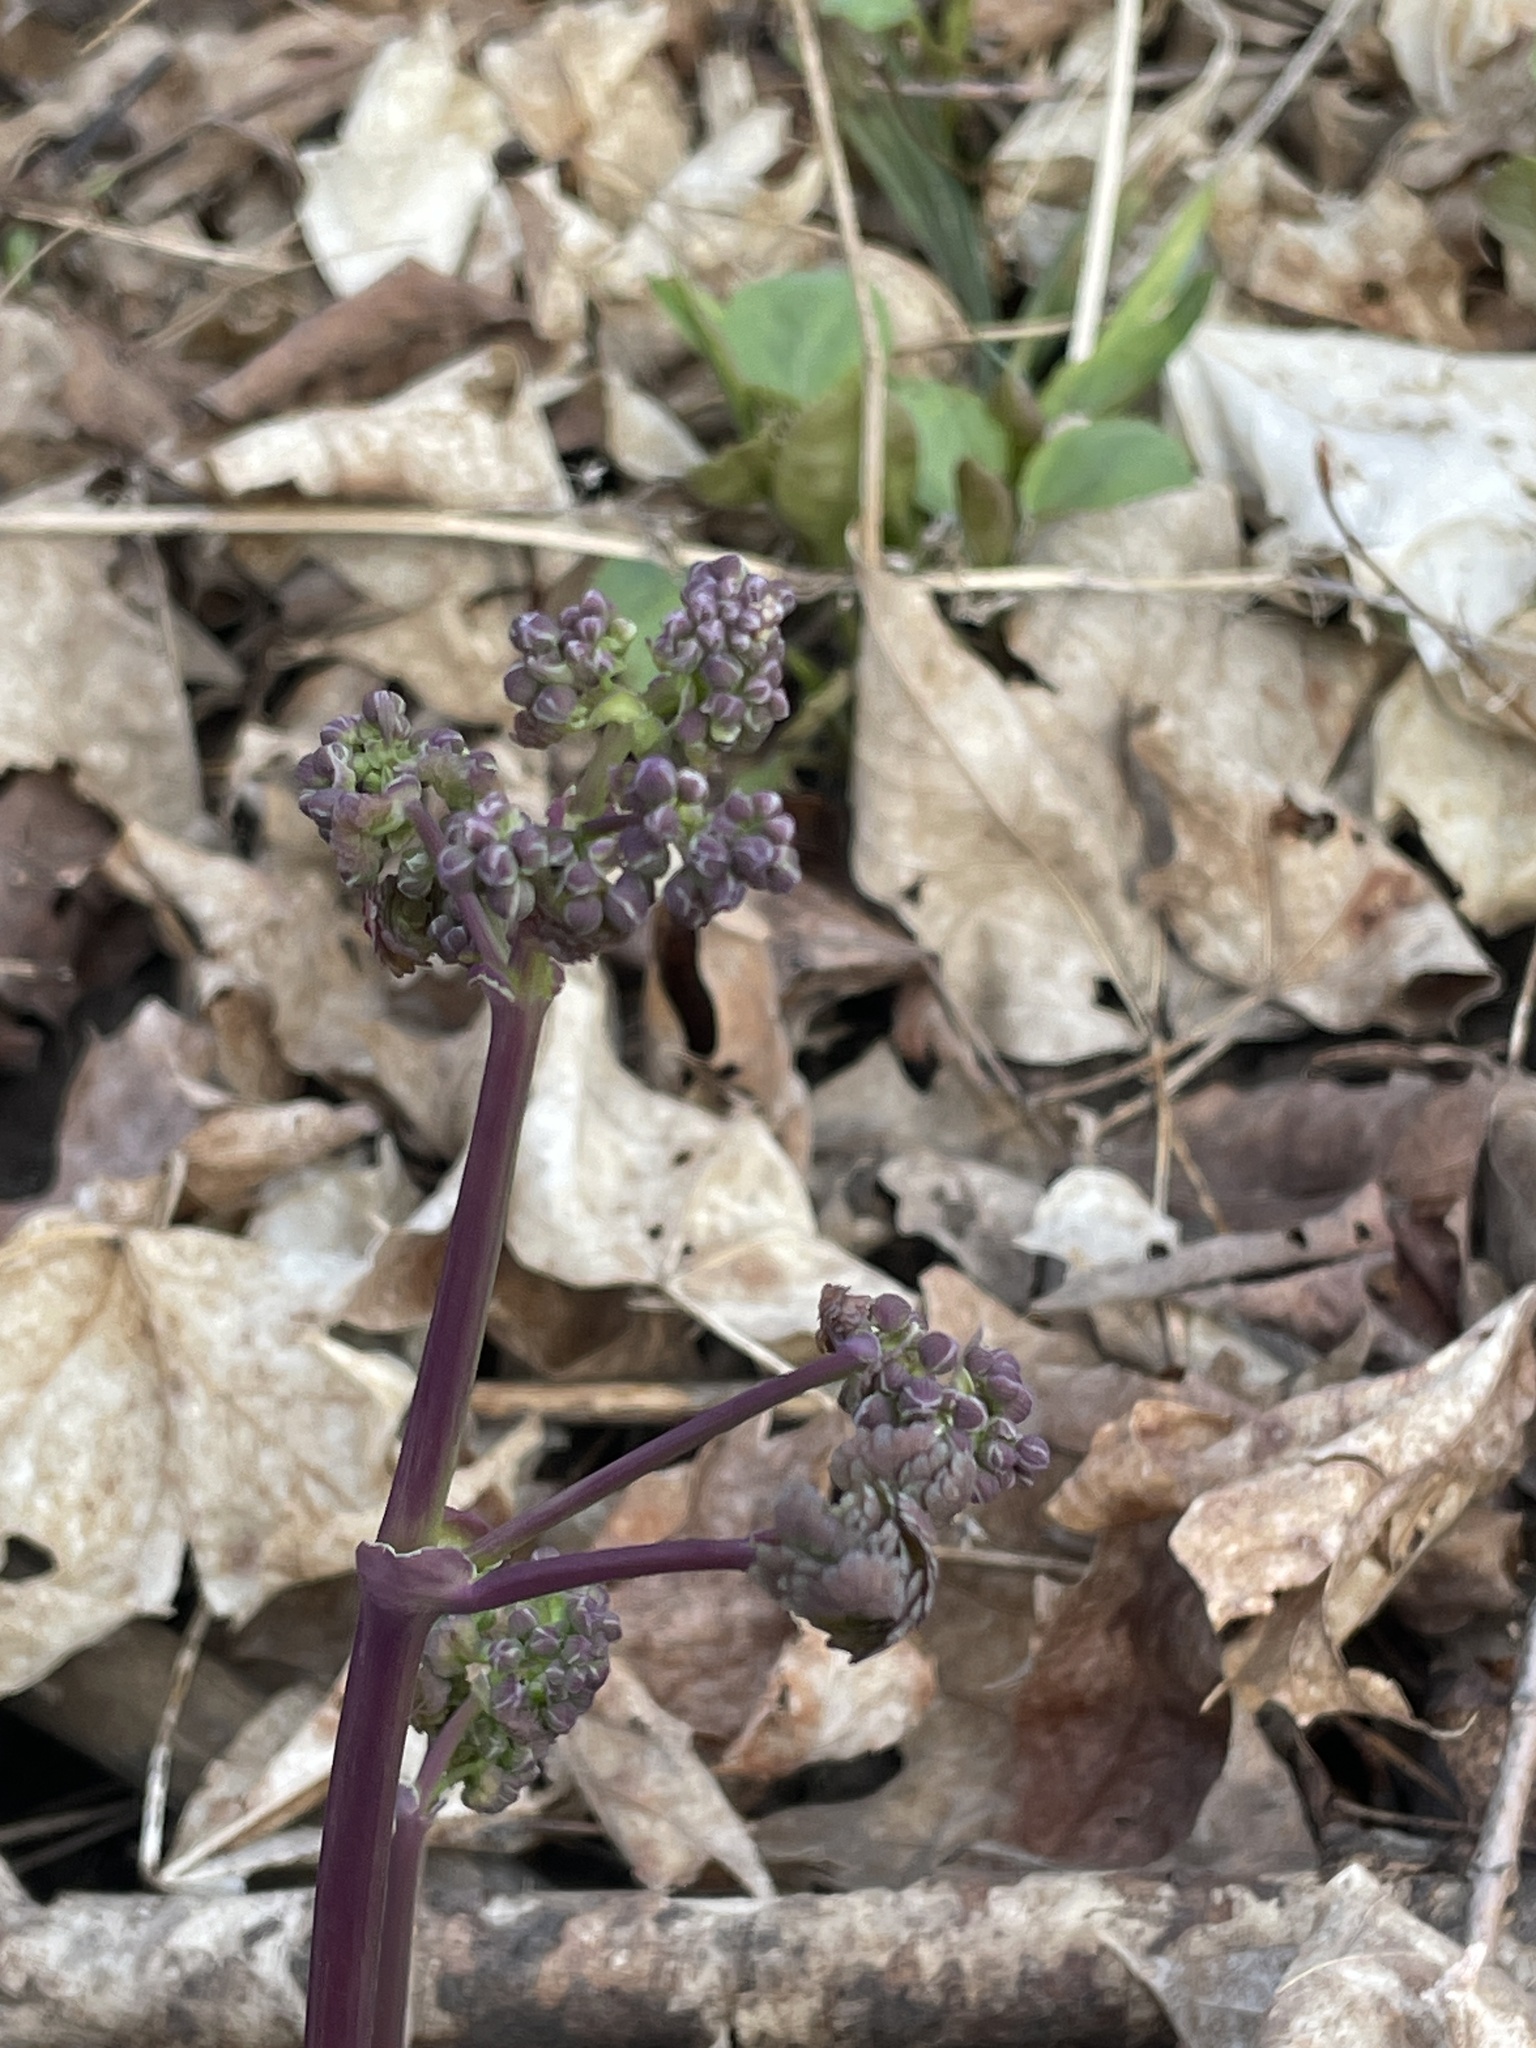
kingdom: Plantae
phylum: Tracheophyta
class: Magnoliopsida
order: Ranunculales
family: Ranunculaceae
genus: Thalictrum
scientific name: Thalictrum dioicum
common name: Early meadow-rue
